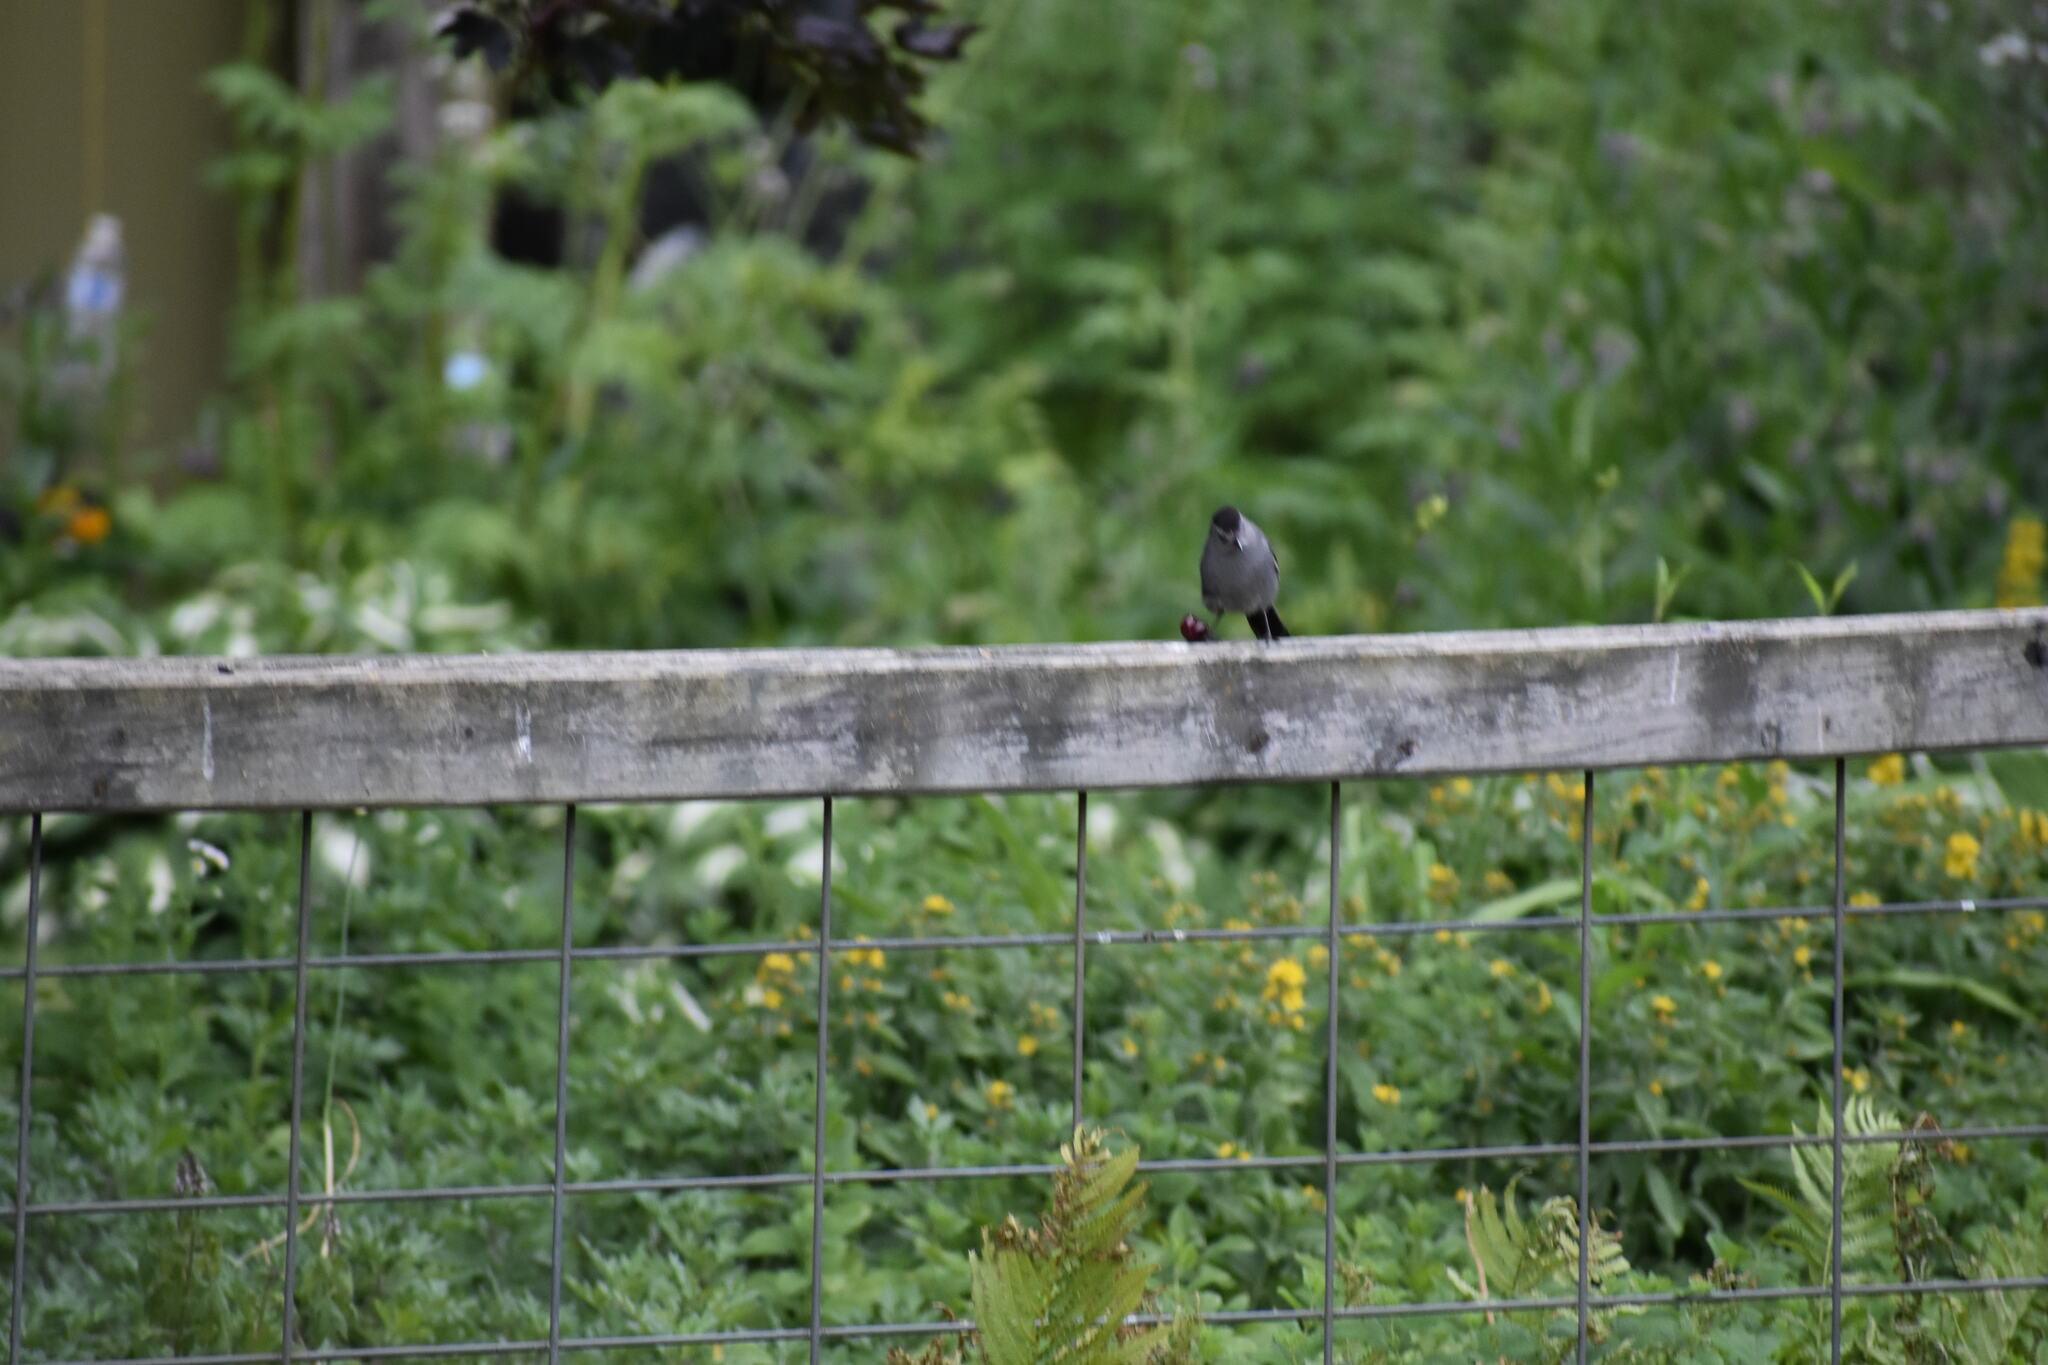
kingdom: Animalia
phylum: Chordata
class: Aves
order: Passeriformes
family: Mimidae
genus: Dumetella
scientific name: Dumetella carolinensis
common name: Gray catbird
